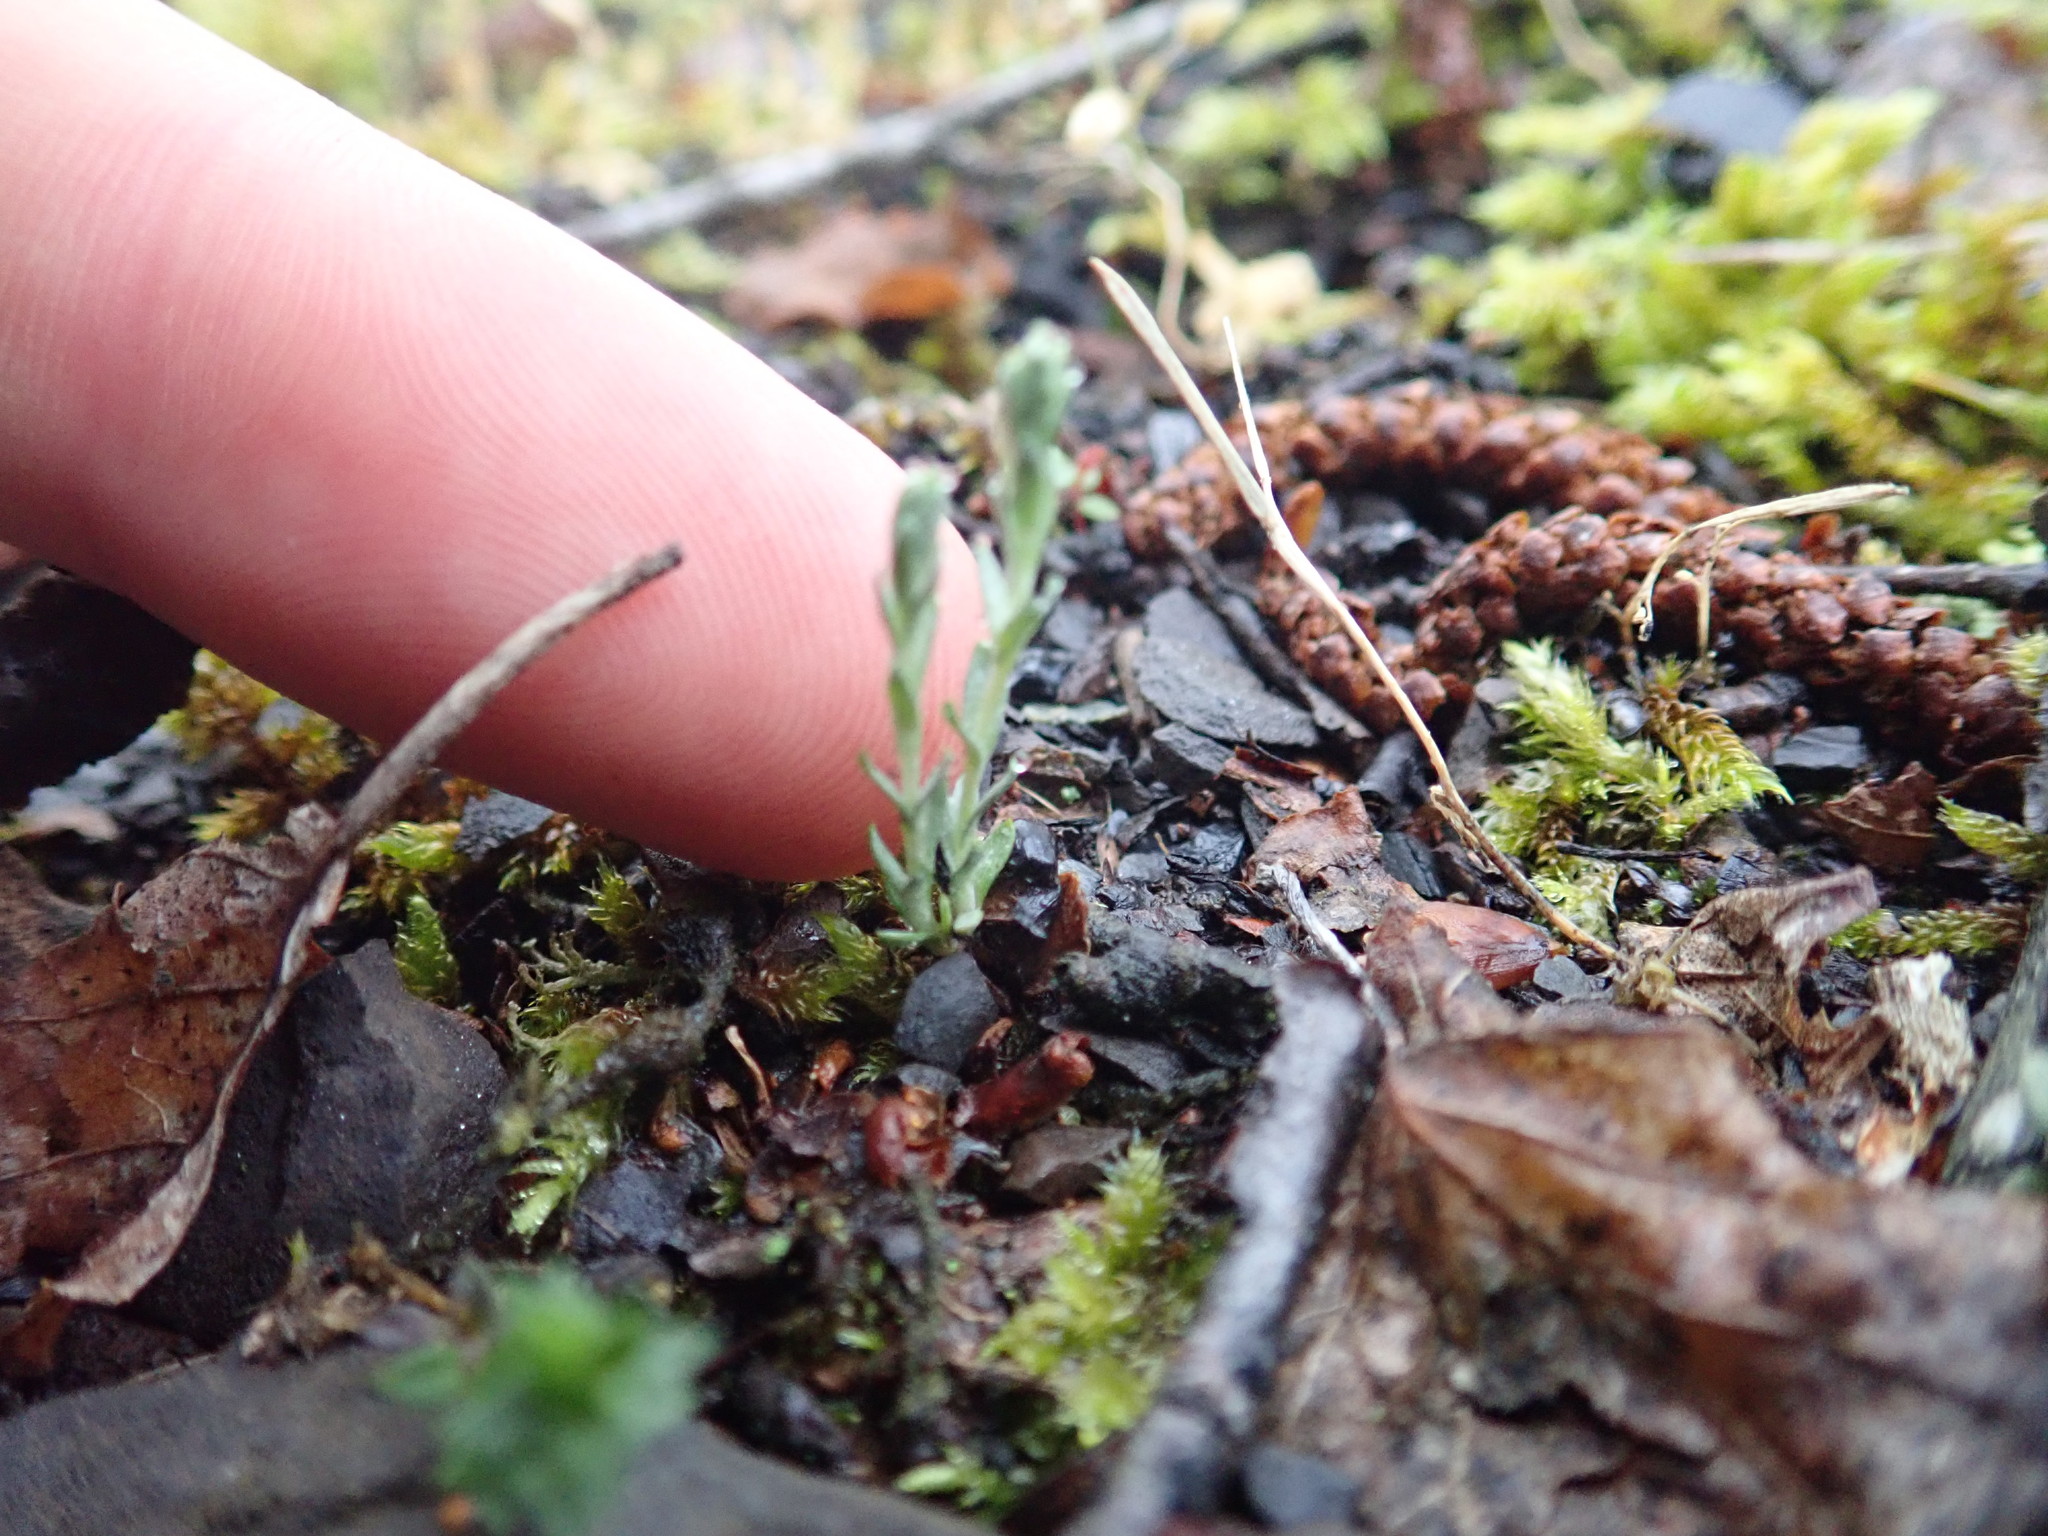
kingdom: Plantae
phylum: Tracheophyta
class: Magnoliopsida
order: Asterales
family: Asteraceae
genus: Logfia
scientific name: Logfia minima
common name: Little cottonrose
